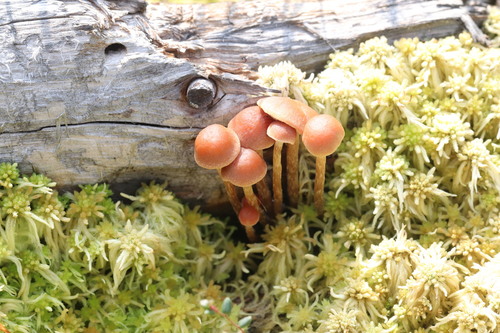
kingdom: Fungi
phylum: Basidiomycota
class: Agaricomycetes
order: Agaricales
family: Strophariaceae
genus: Bogbodia
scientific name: Bogbodia uda
